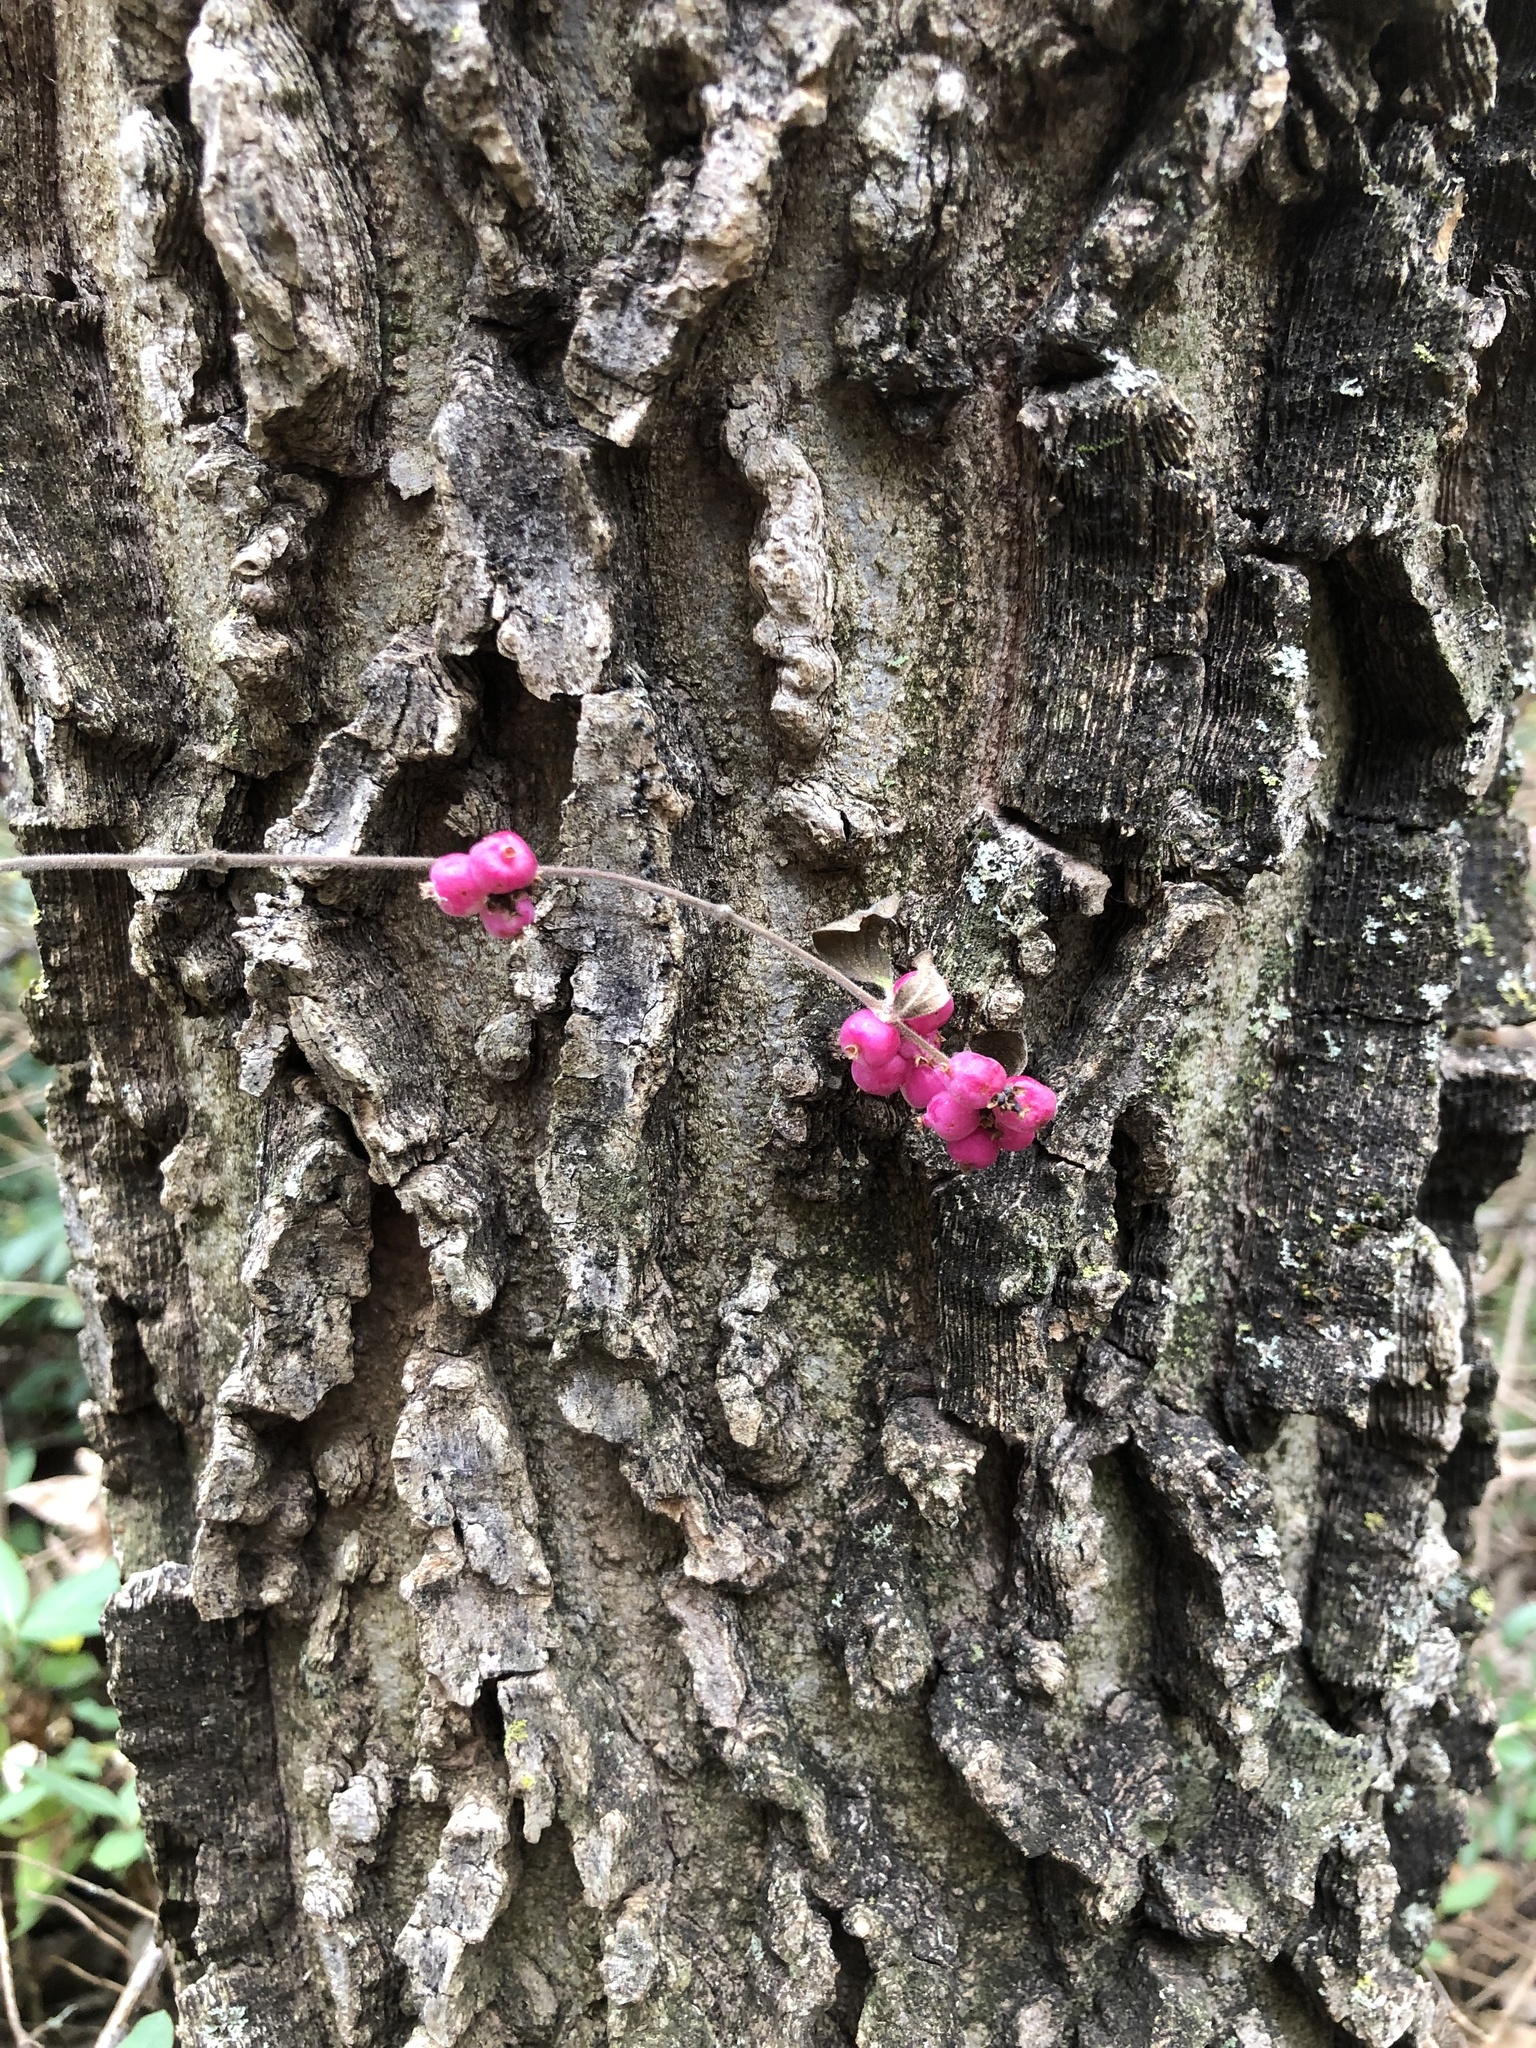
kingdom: Plantae
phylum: Tracheophyta
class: Magnoliopsida
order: Dipsacales
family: Caprifoliaceae
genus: Symphoricarpos
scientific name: Symphoricarpos orbiculatus
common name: Coralberry
